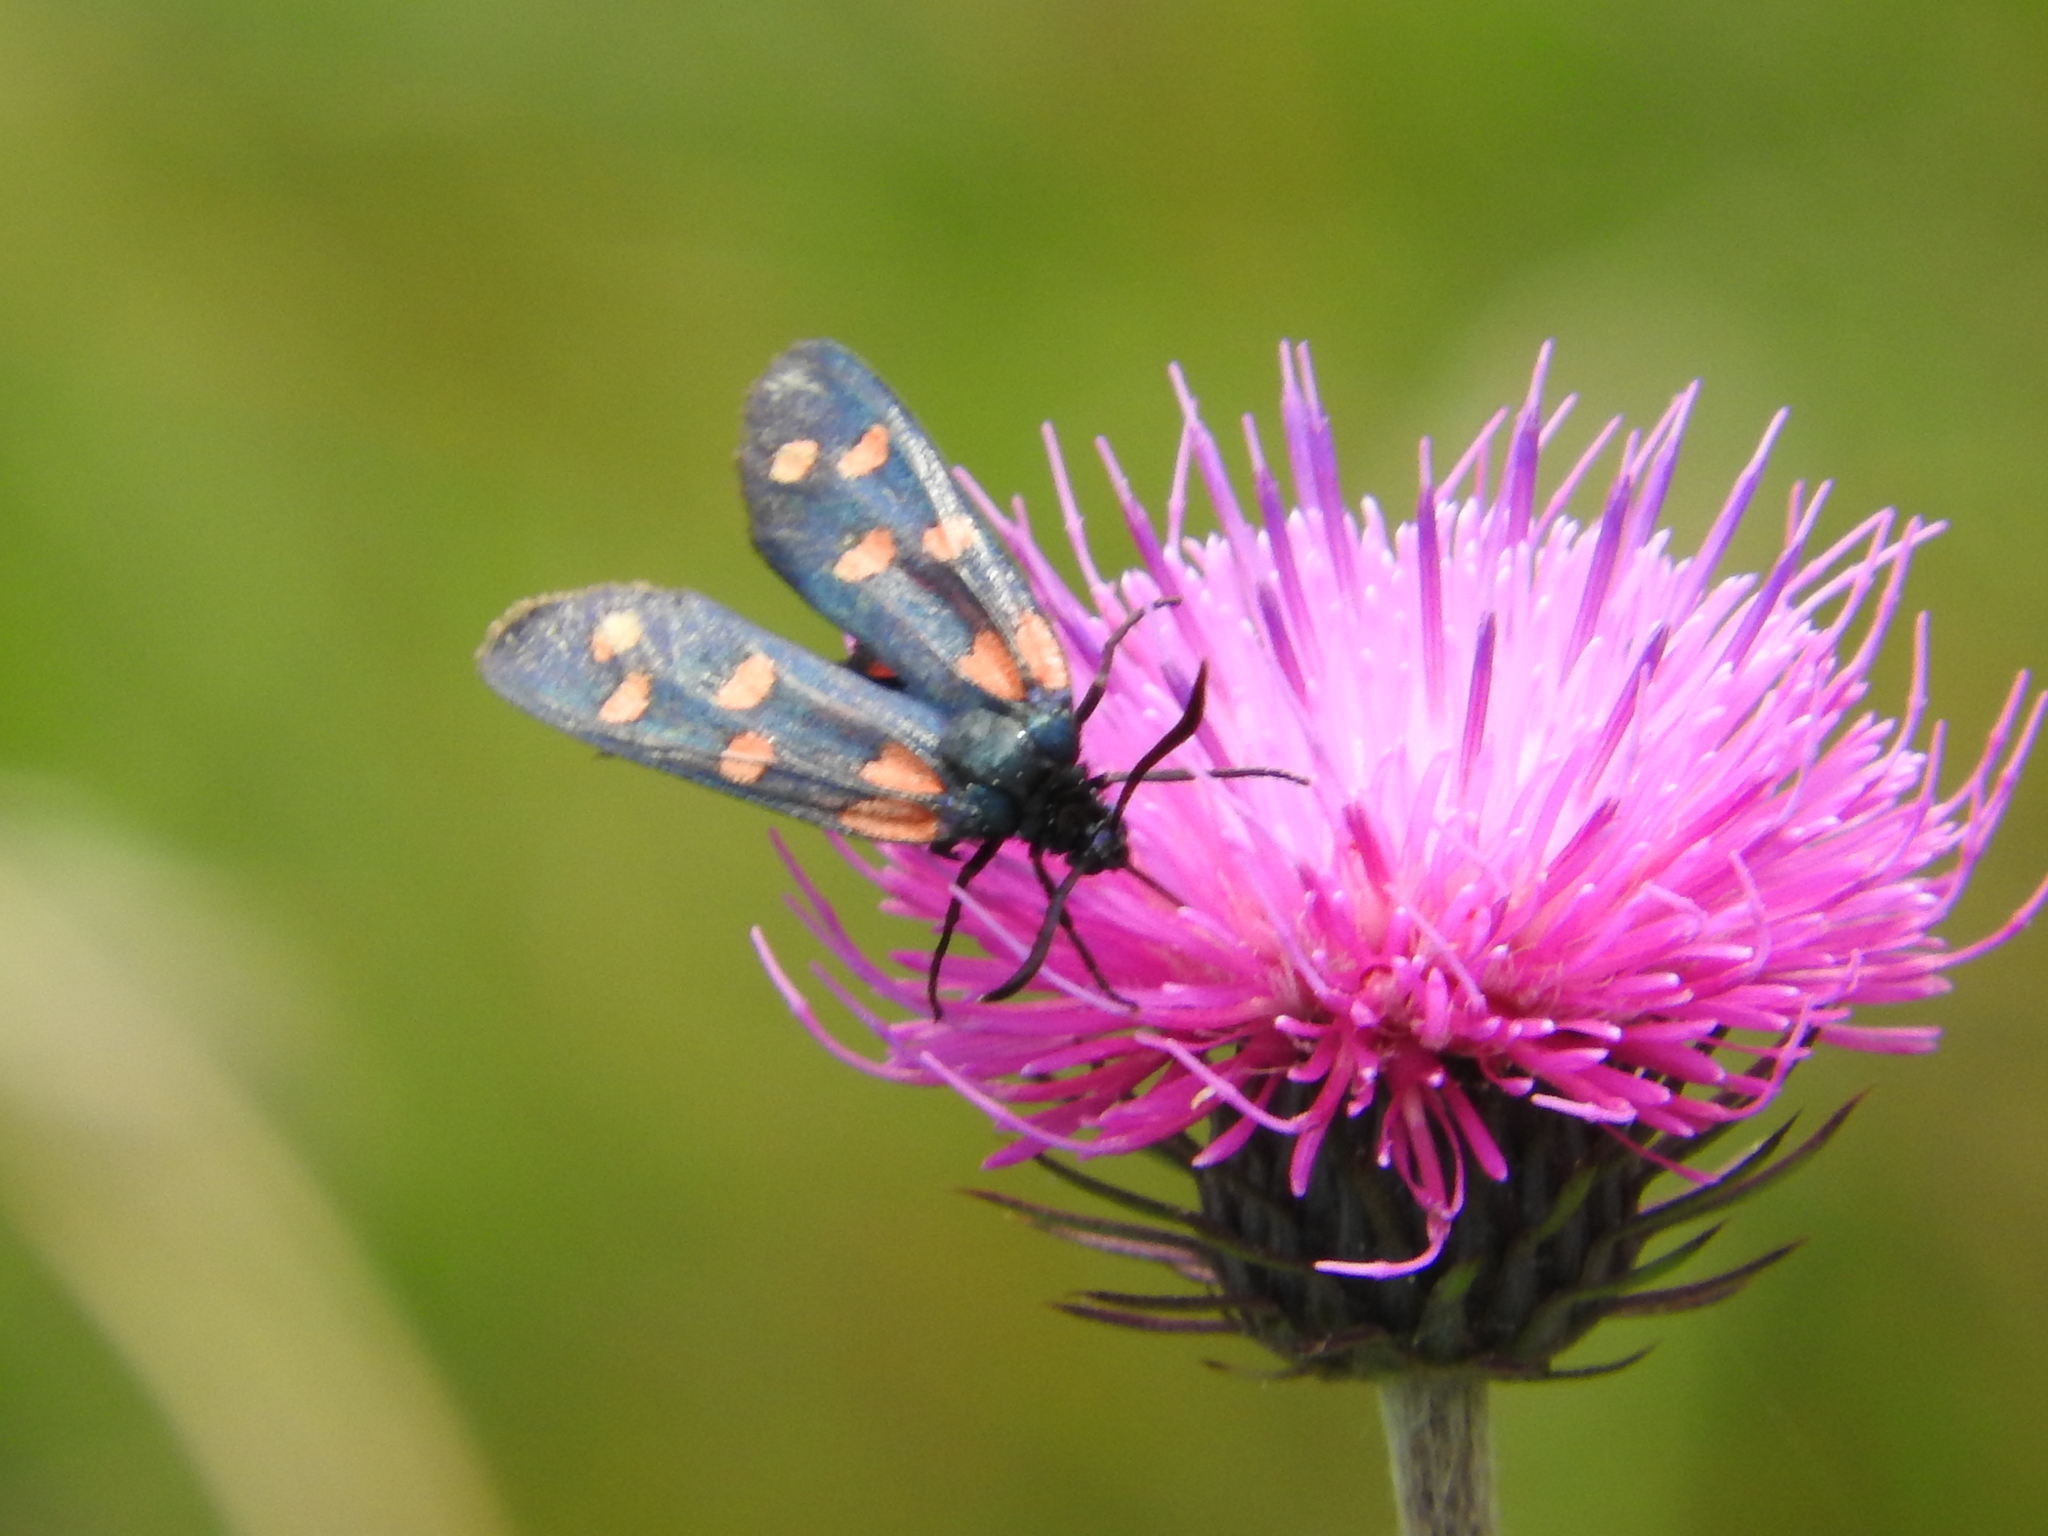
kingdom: Animalia
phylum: Arthropoda
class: Insecta
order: Lepidoptera
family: Zygaenidae
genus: Zygaena
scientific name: Zygaena transalpina
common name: Southern six spot burnet
